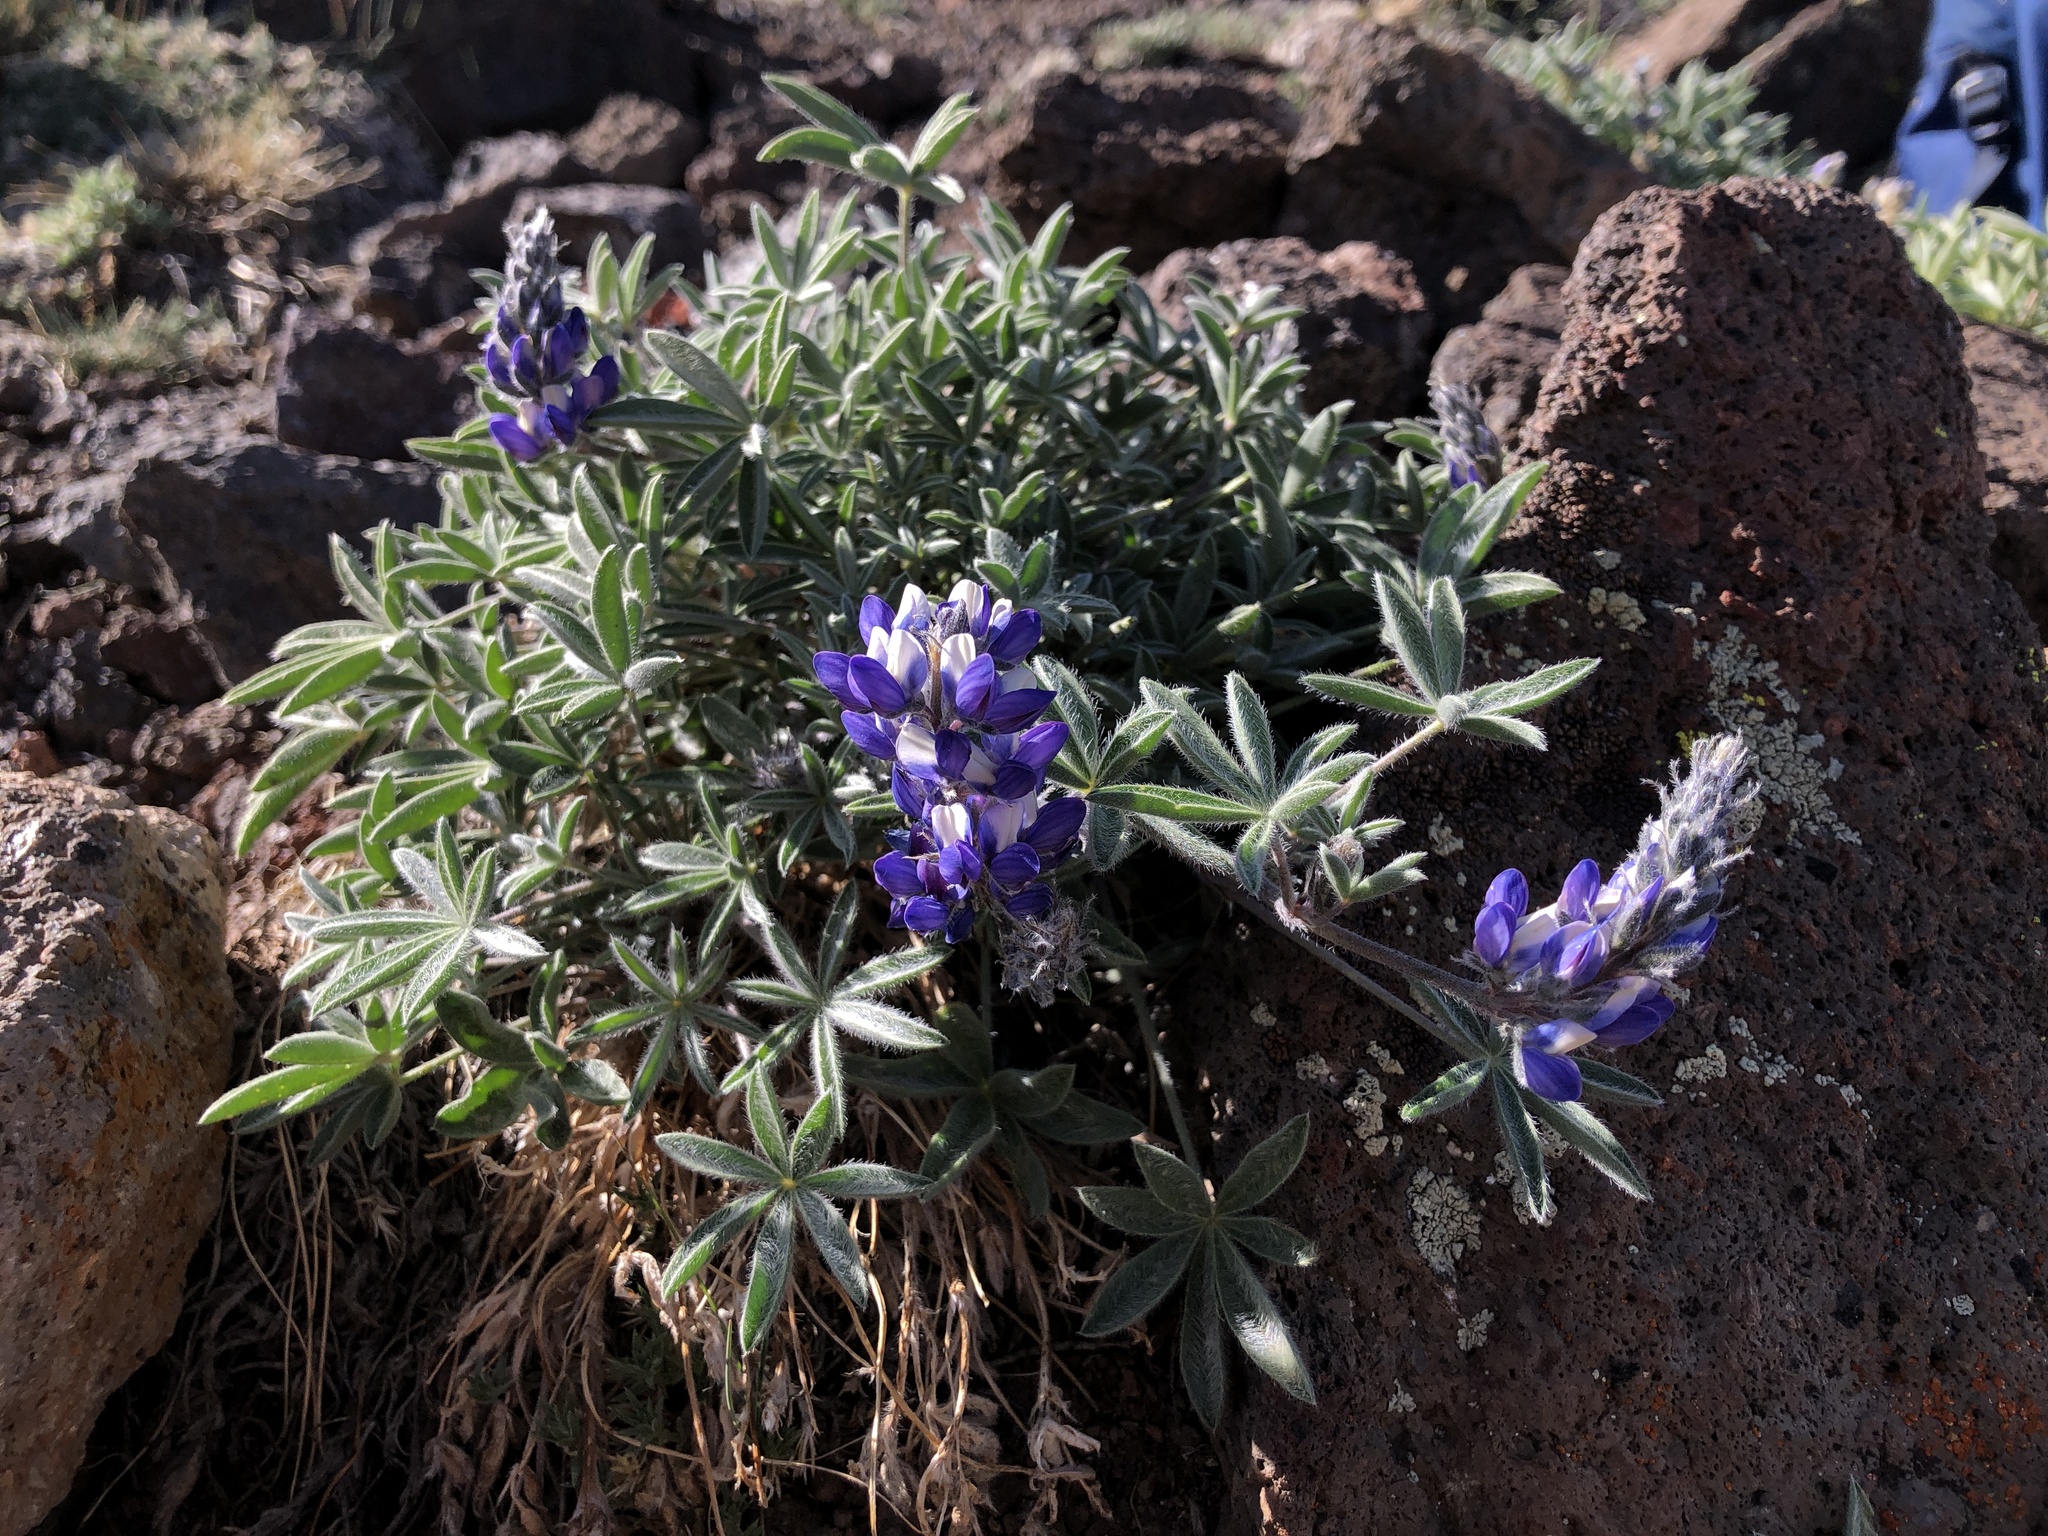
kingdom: Plantae
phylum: Tracheophyta
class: Magnoliopsida
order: Fabales
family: Fabaceae
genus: Lupinus
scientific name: Lupinus lepidus
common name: Prairie lupine
